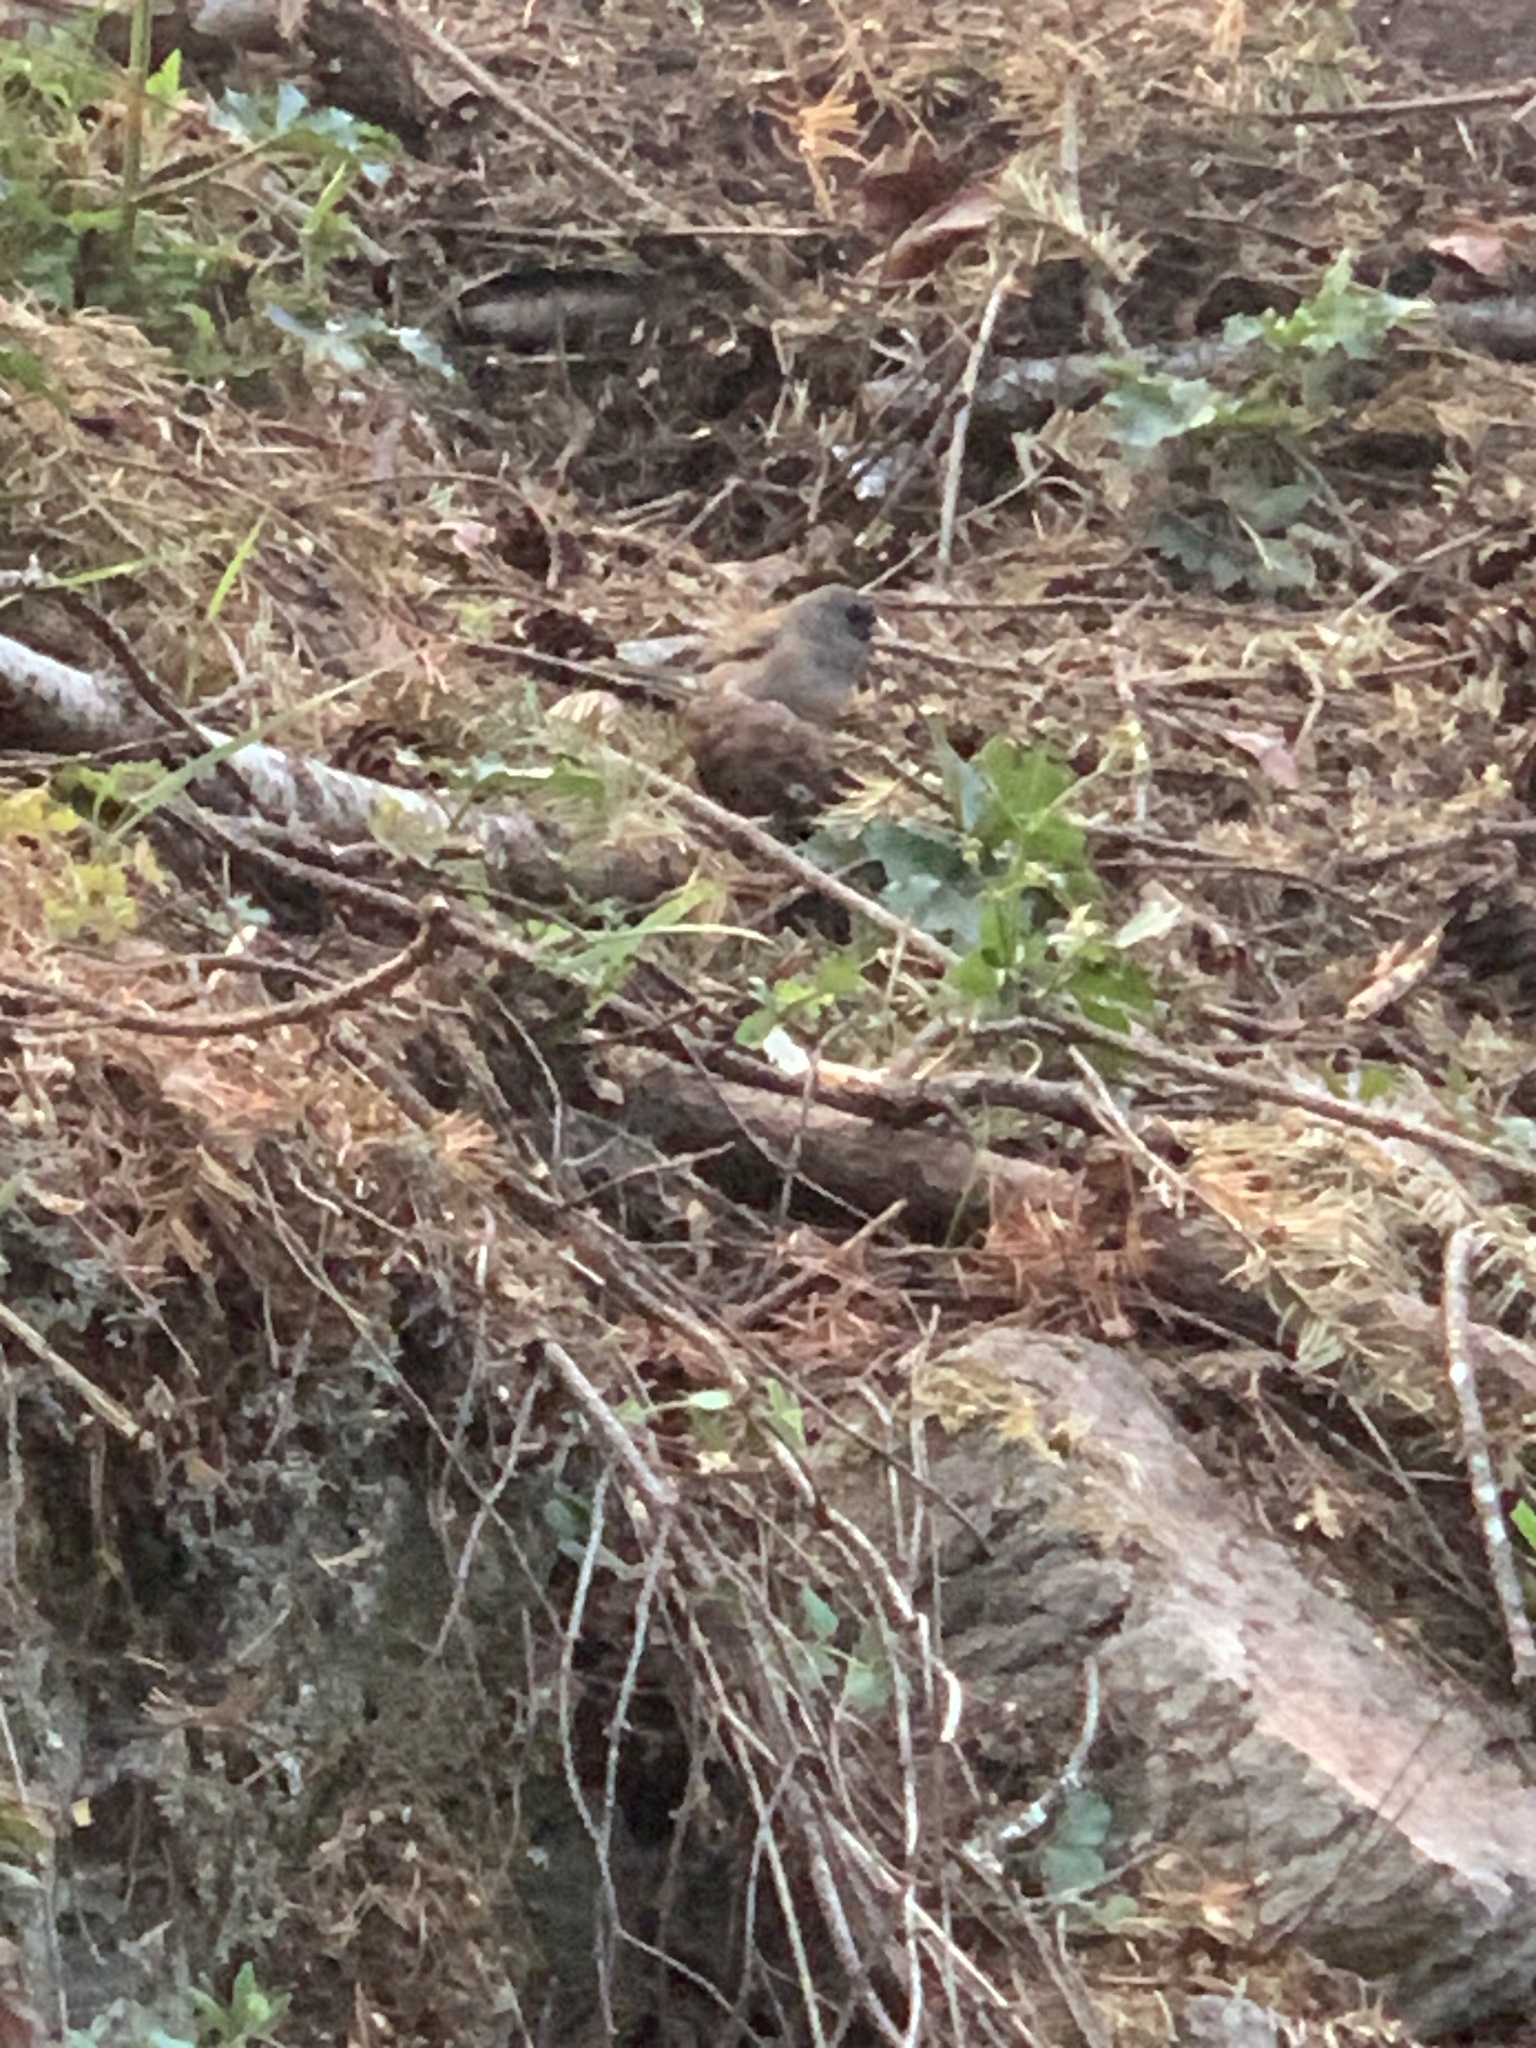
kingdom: Animalia
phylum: Chordata
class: Aves
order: Passeriformes
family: Passerellidae
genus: Junco
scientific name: Junco hyemalis
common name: Dark-eyed junco
